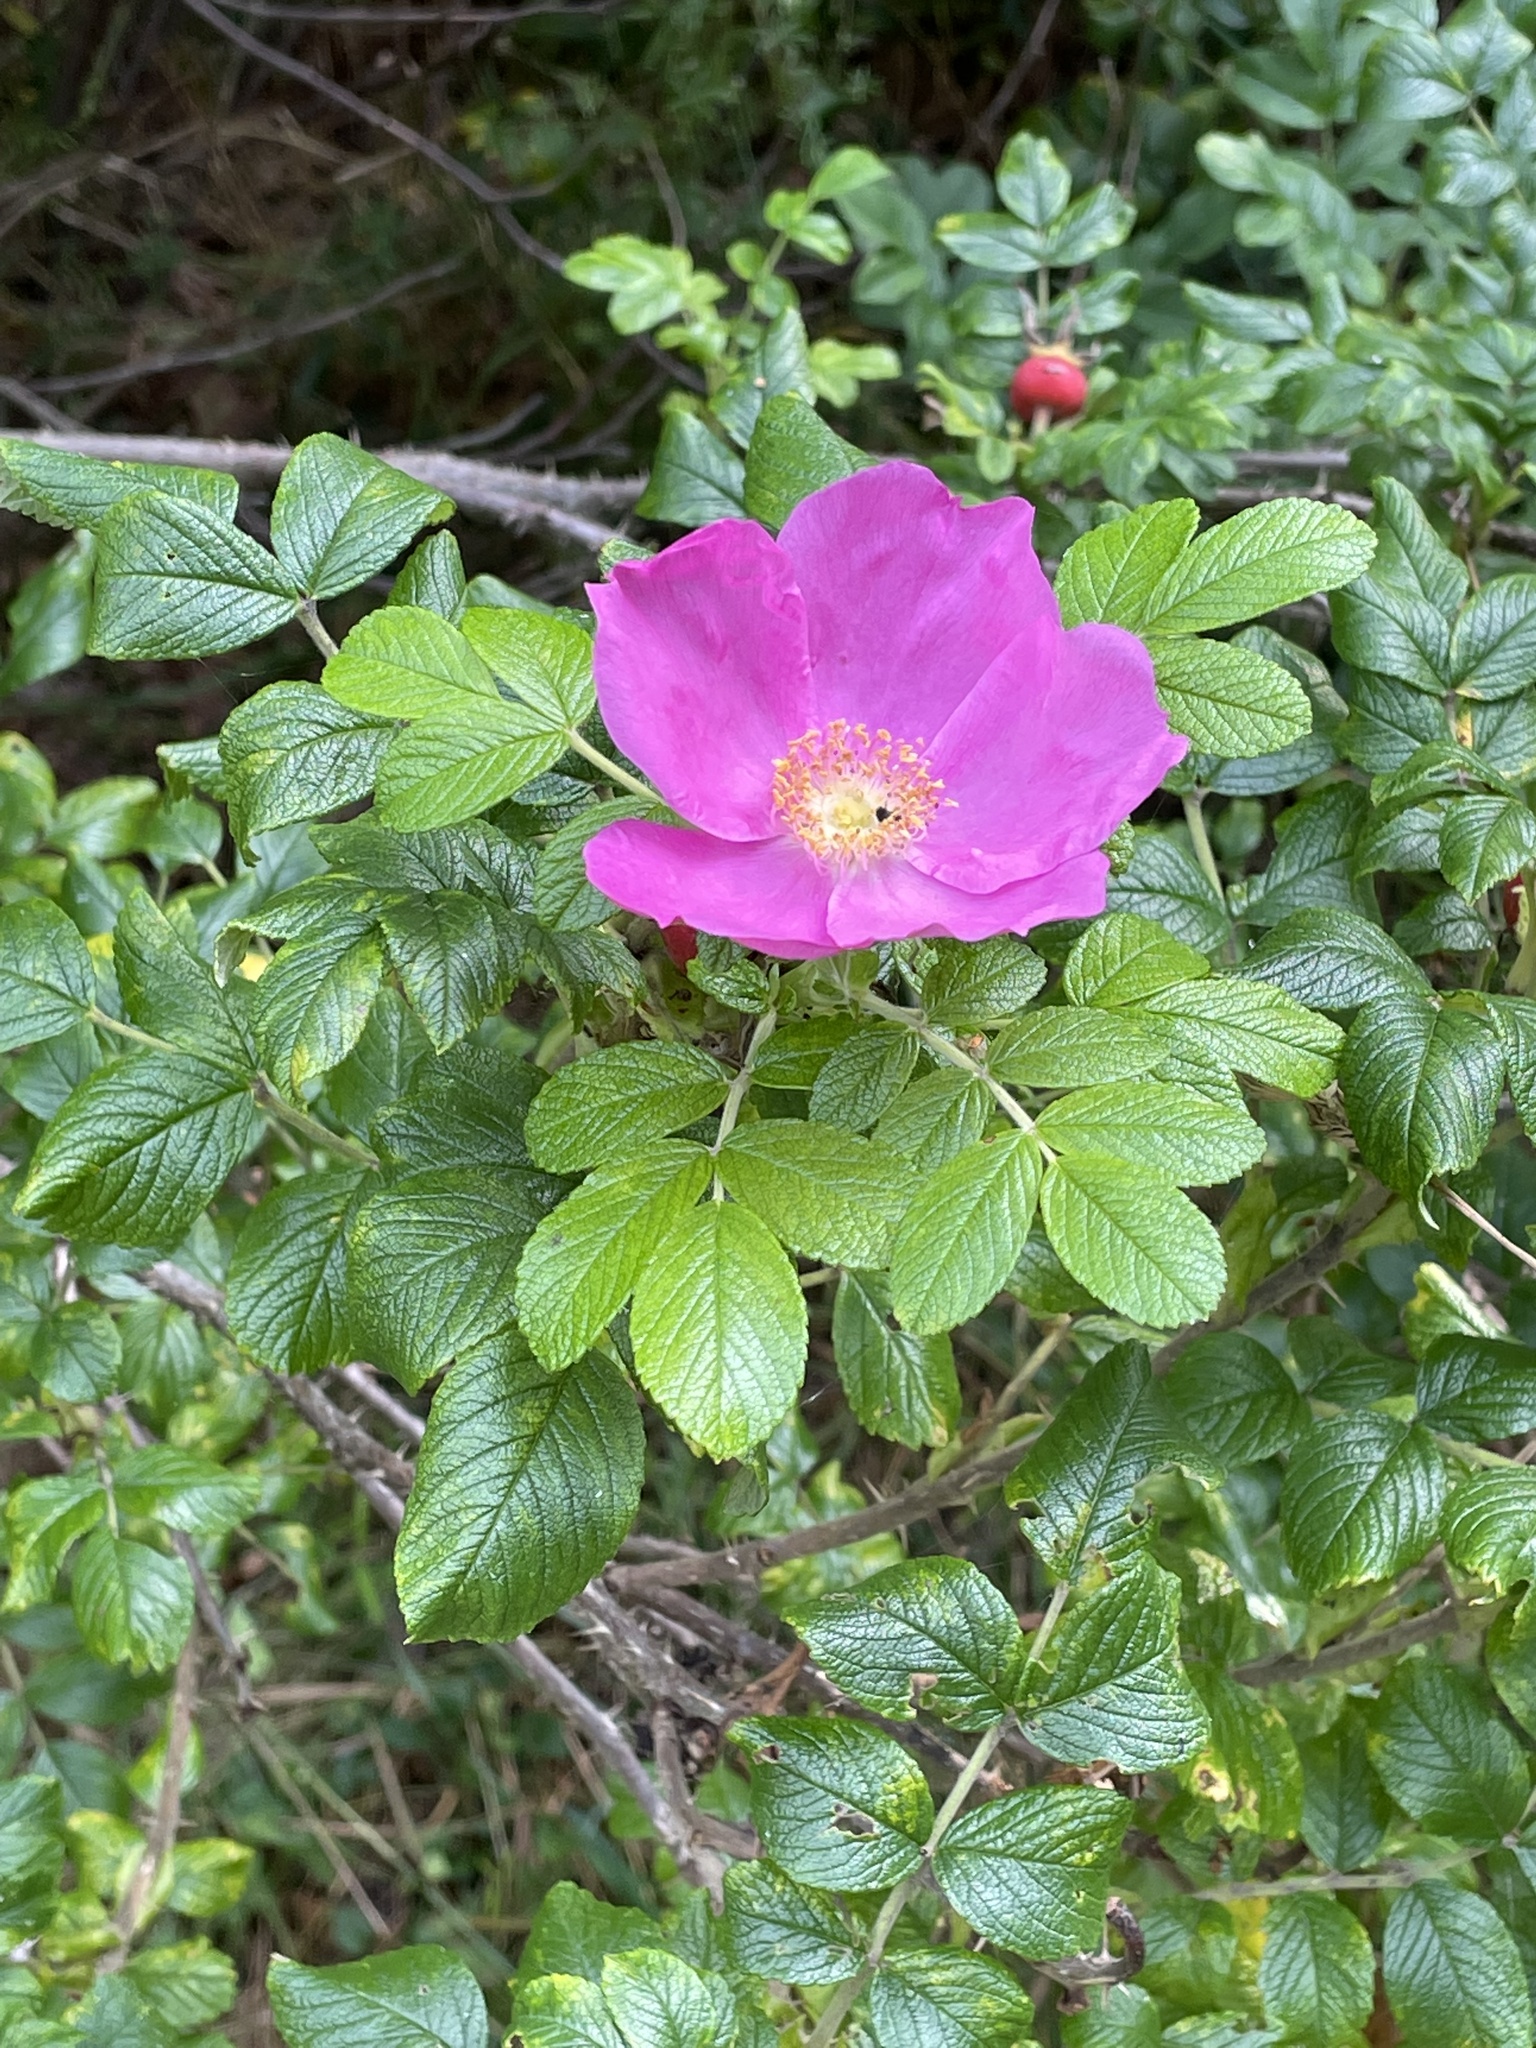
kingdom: Plantae
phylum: Tracheophyta
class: Magnoliopsida
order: Rosales
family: Rosaceae
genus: Rosa
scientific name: Rosa rugosa
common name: Japanese rose
